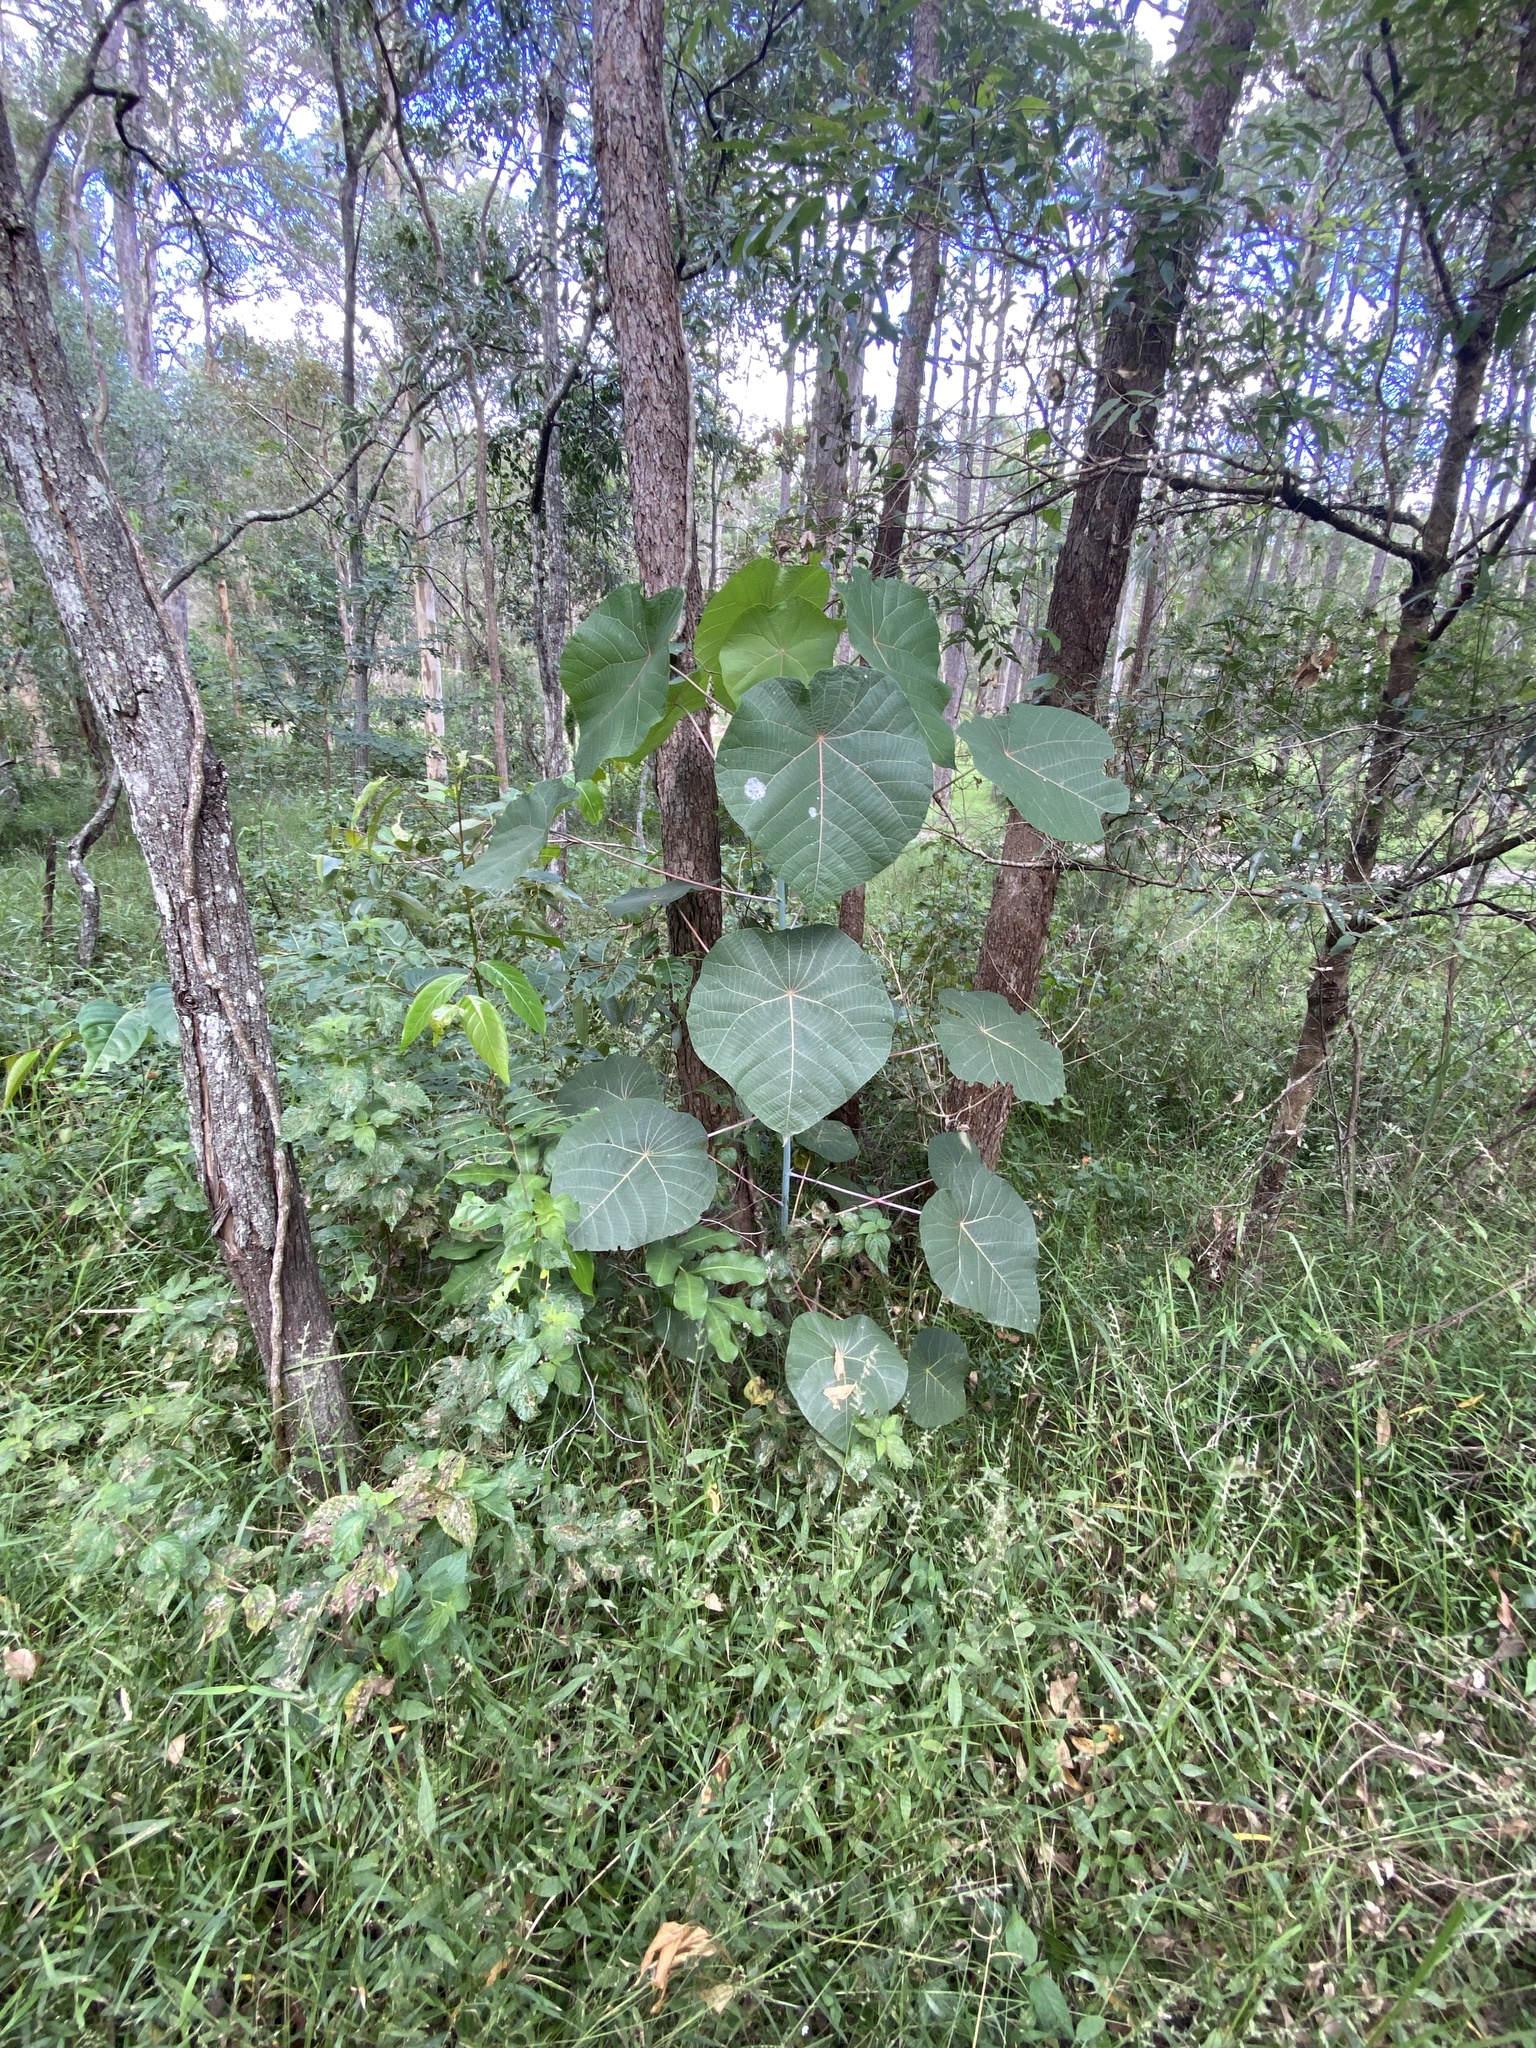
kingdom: Plantae
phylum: Tracheophyta
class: Magnoliopsida
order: Malpighiales
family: Euphorbiaceae
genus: Macaranga
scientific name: Macaranga tanarius
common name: Parasol leaf tree
